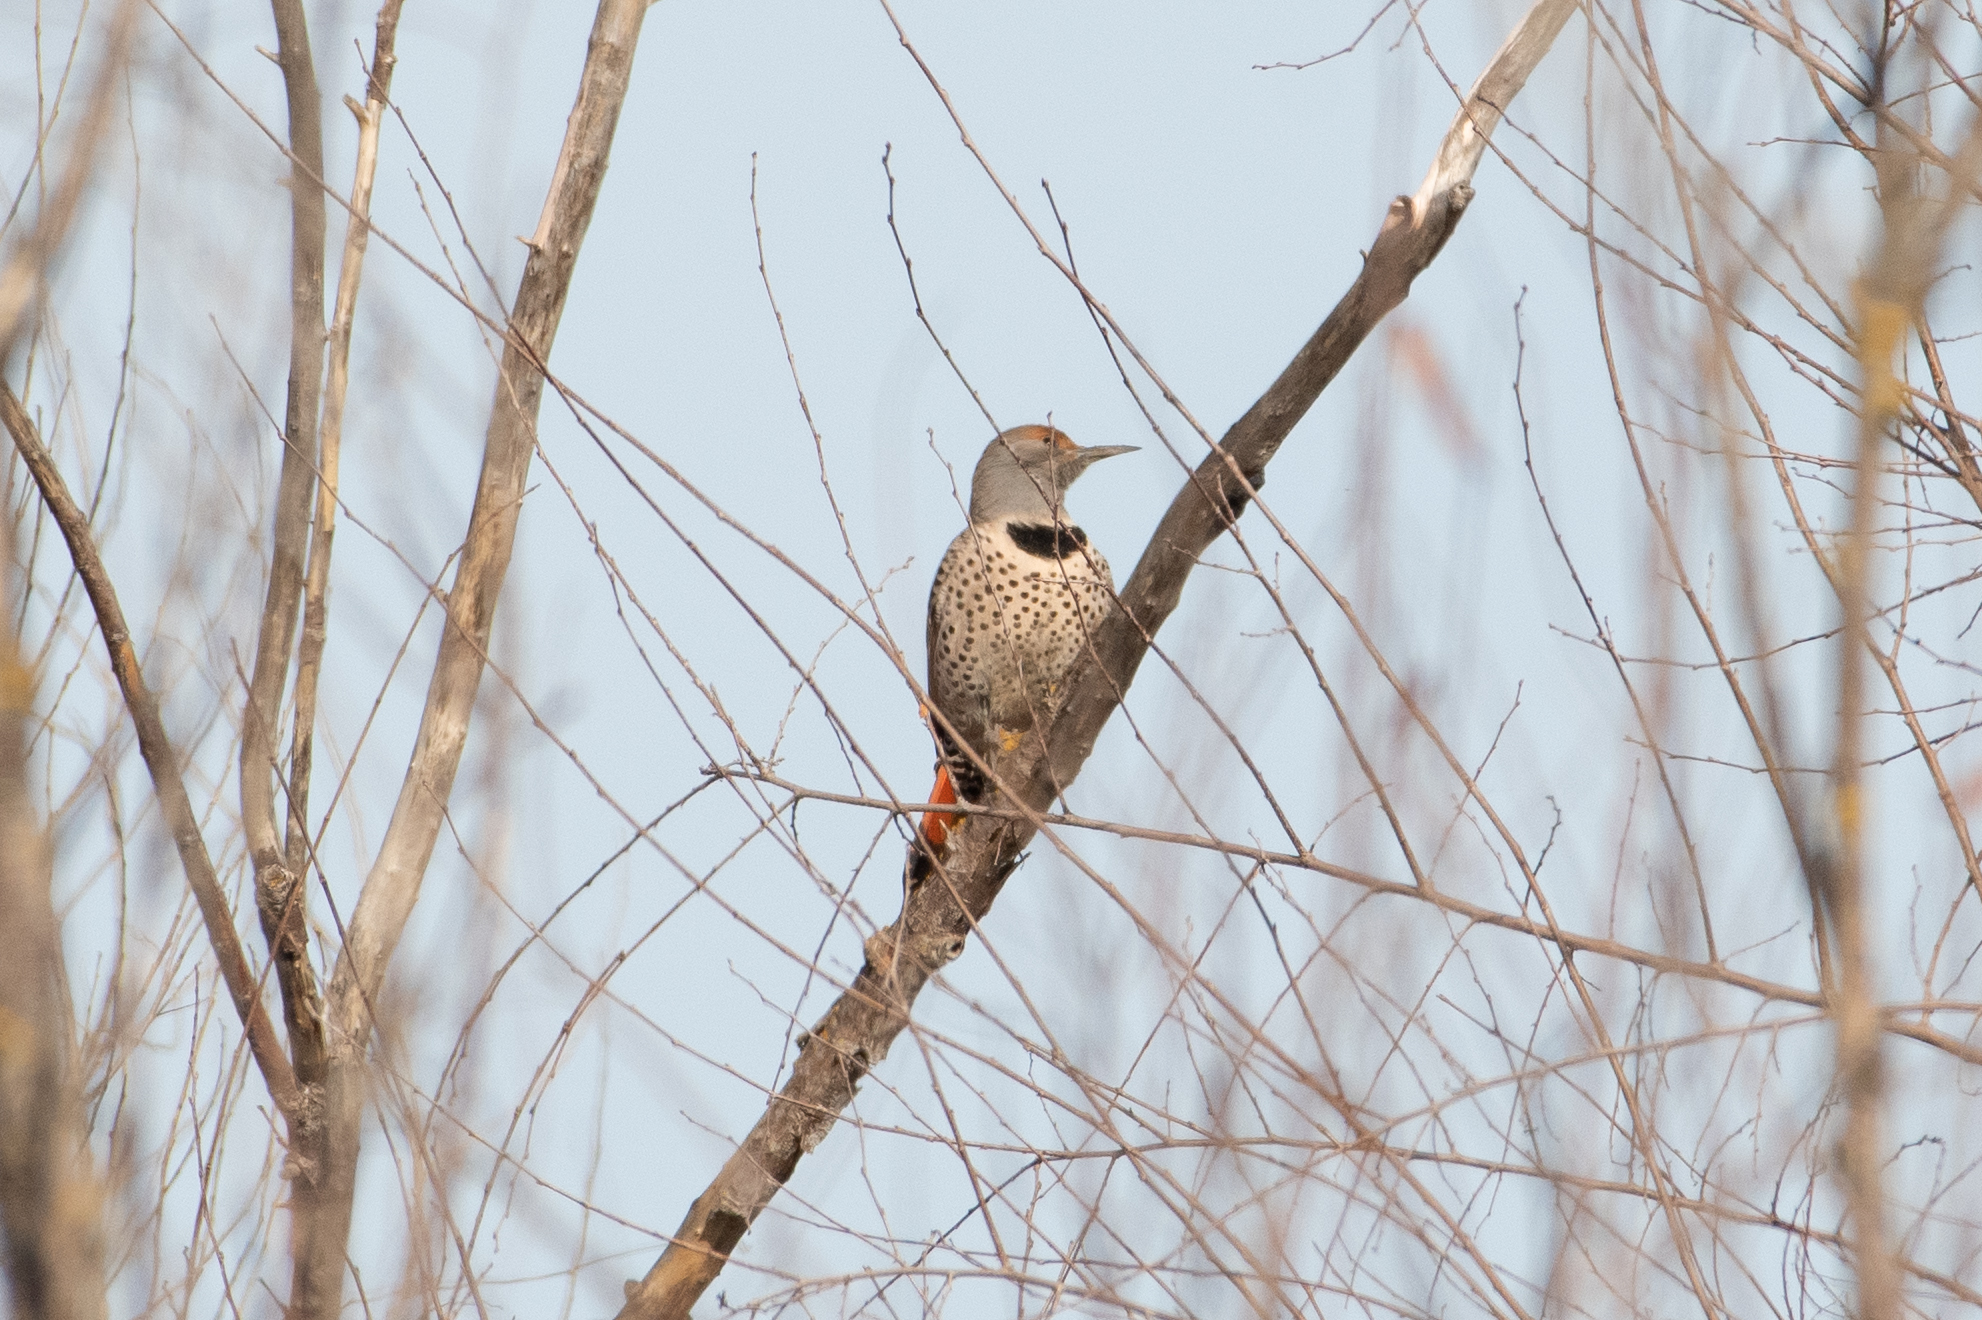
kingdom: Animalia
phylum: Chordata
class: Aves
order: Piciformes
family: Picidae
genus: Colaptes
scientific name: Colaptes auratus
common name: Northern flicker
